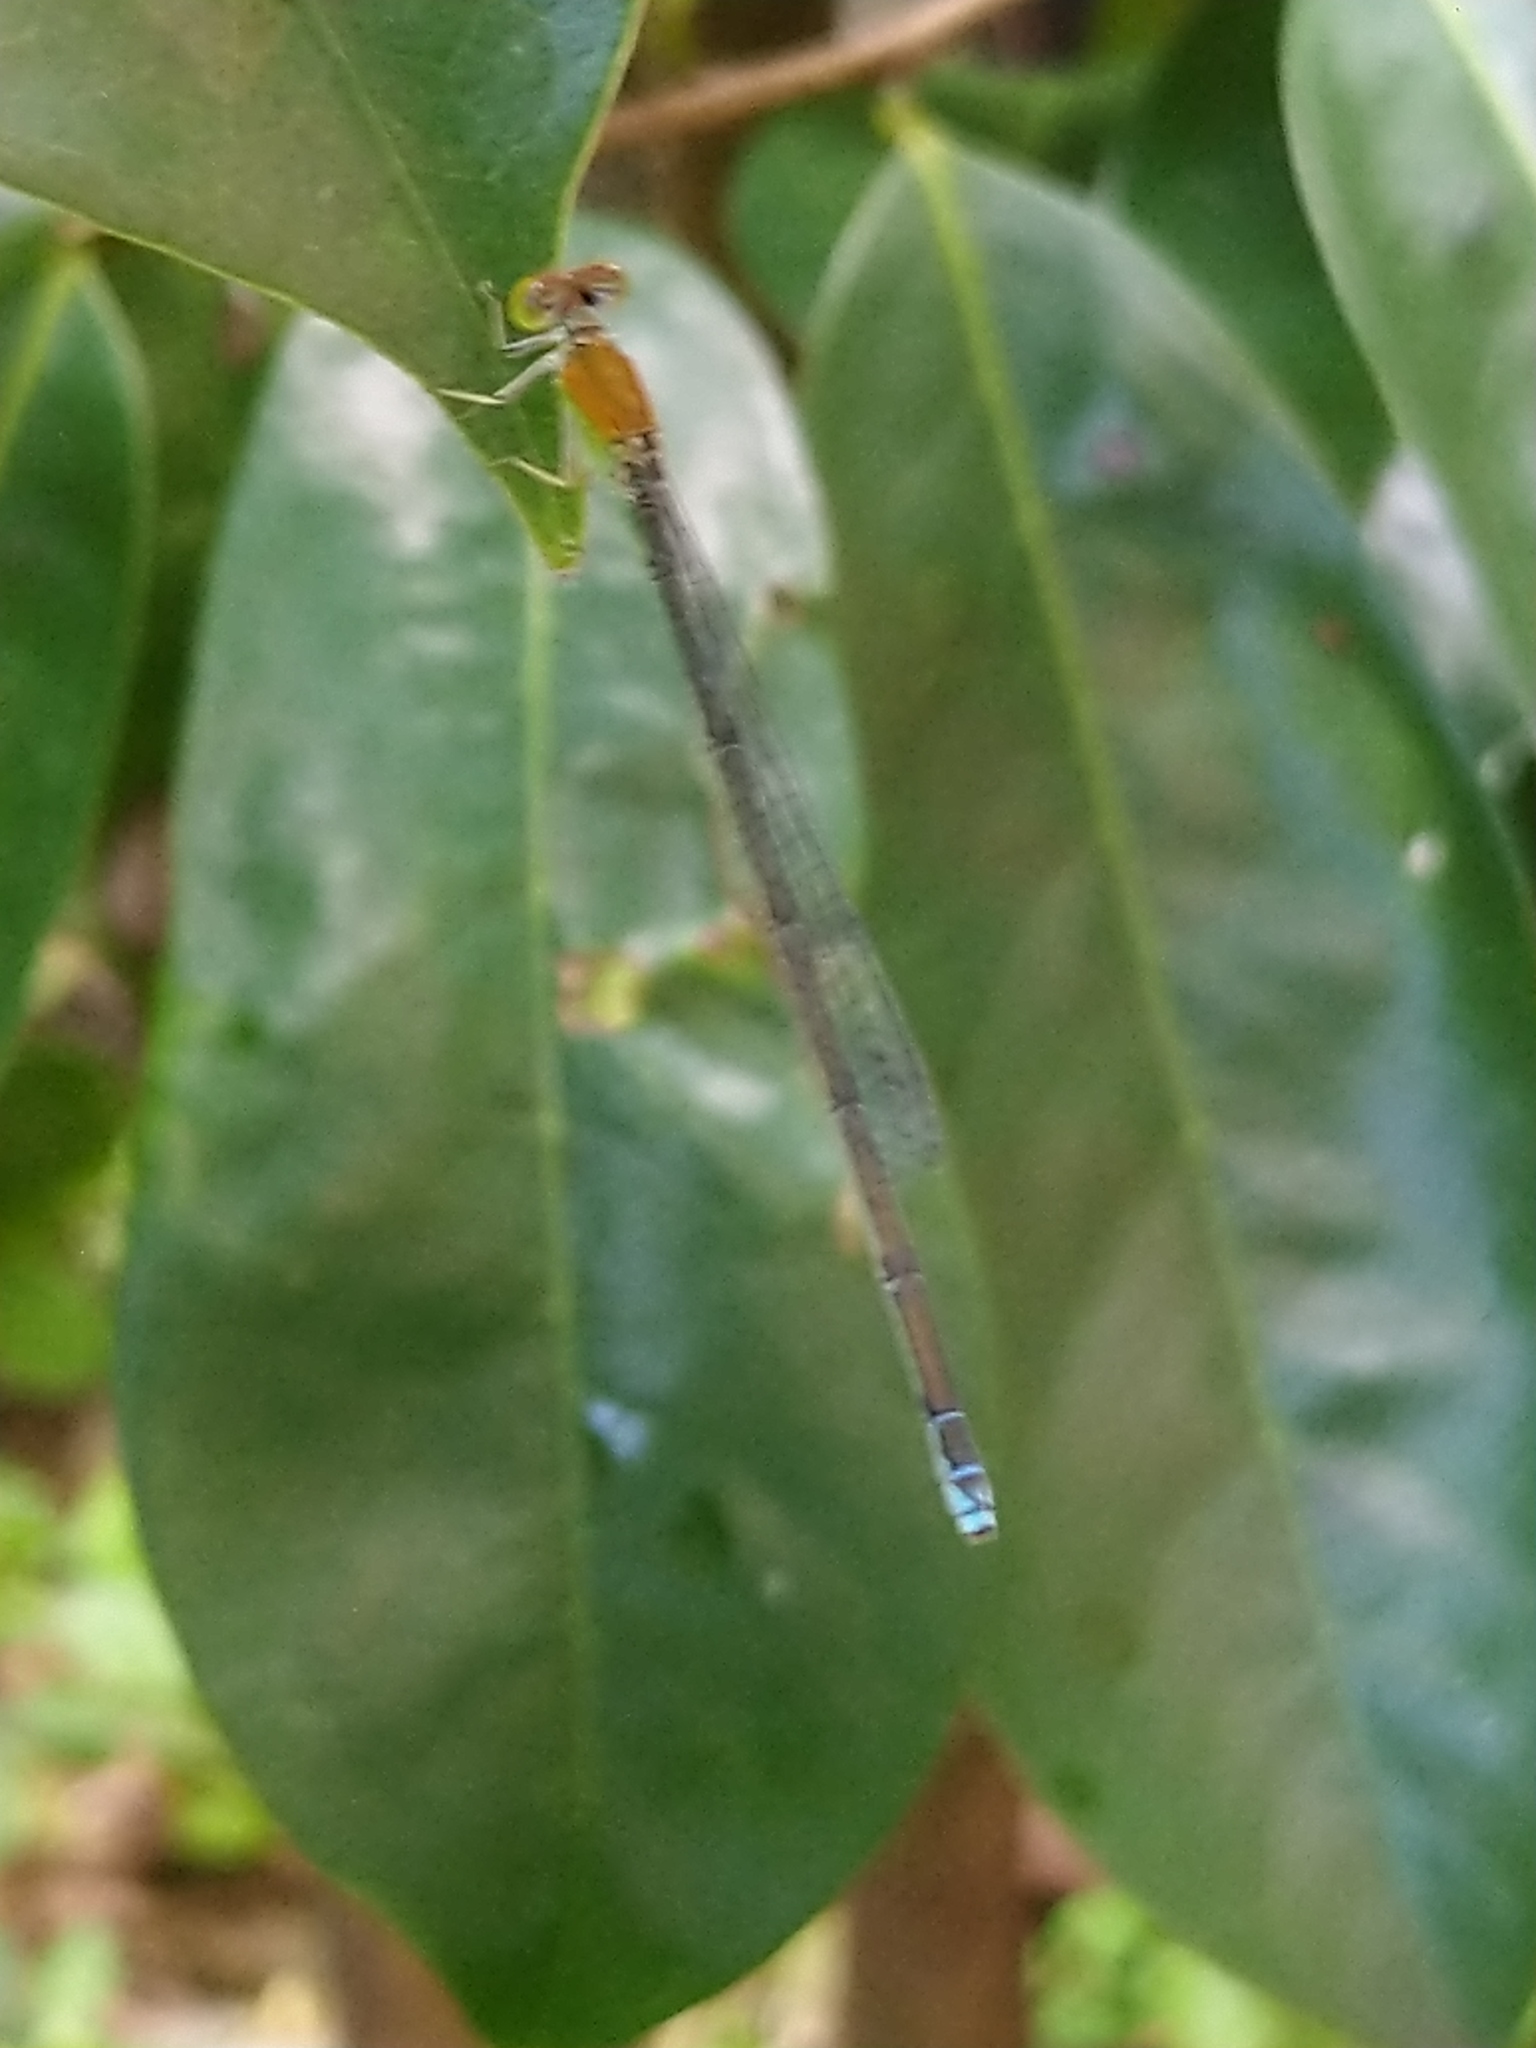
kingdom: Animalia
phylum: Arthropoda
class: Insecta
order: Odonata
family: Coenagrionidae
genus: Pseudagrion
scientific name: Pseudagrion rubriceps
